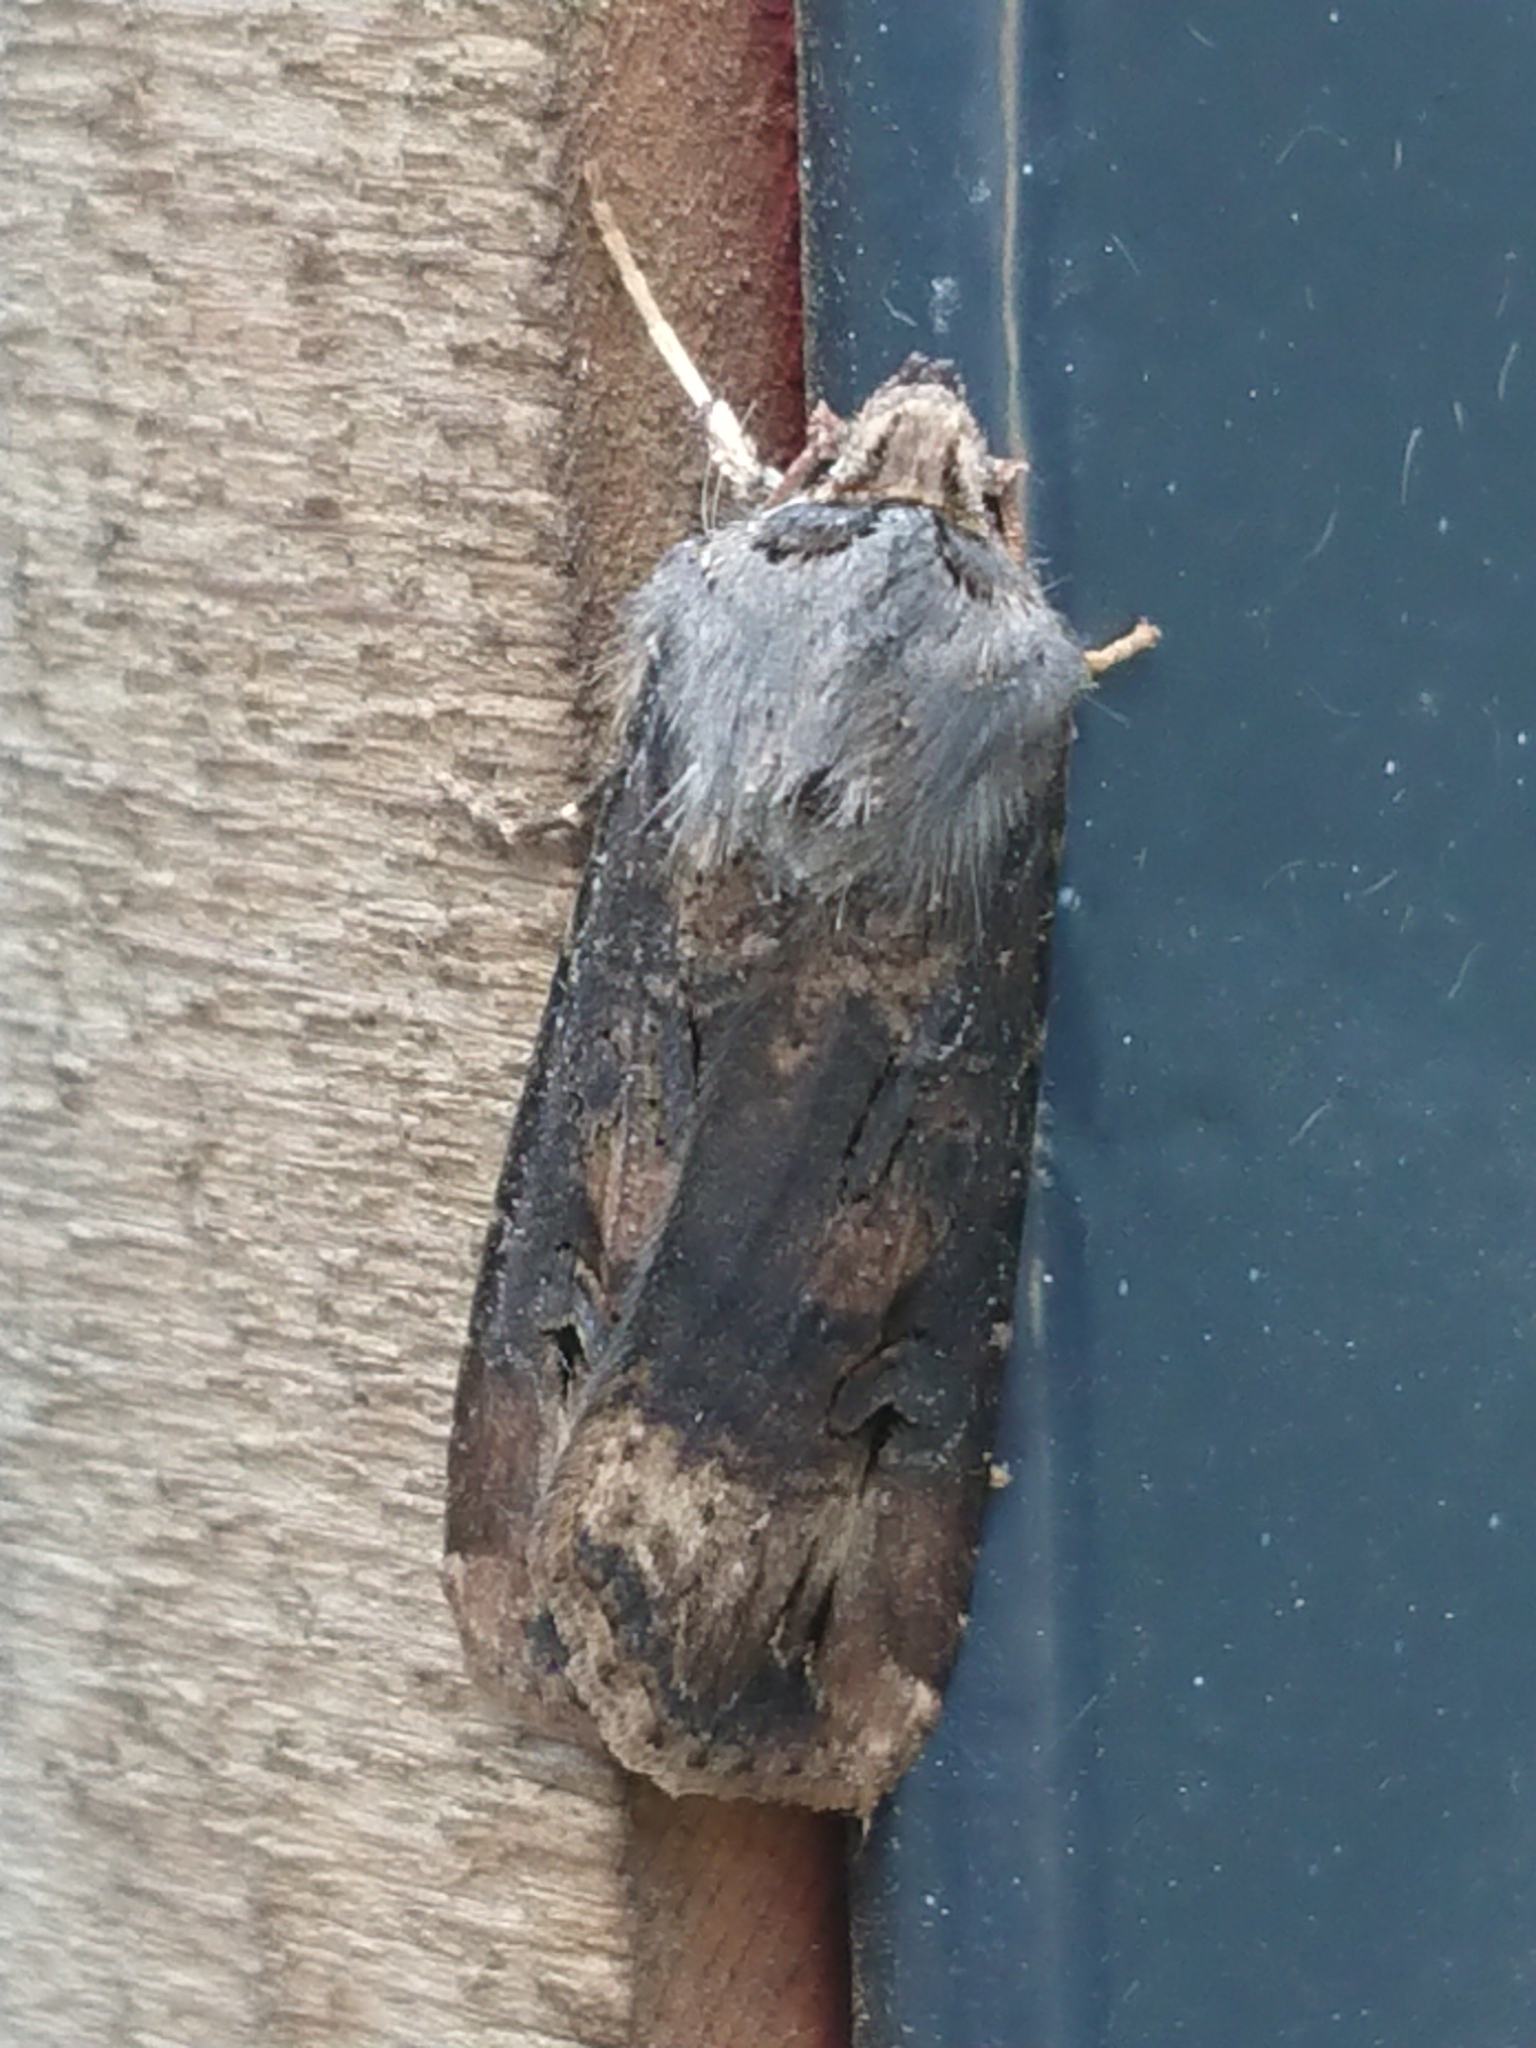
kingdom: Animalia
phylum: Arthropoda
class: Insecta
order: Lepidoptera
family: Noctuidae
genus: Agrotis
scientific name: Agrotis ipsilon
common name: Dark sword-grass
